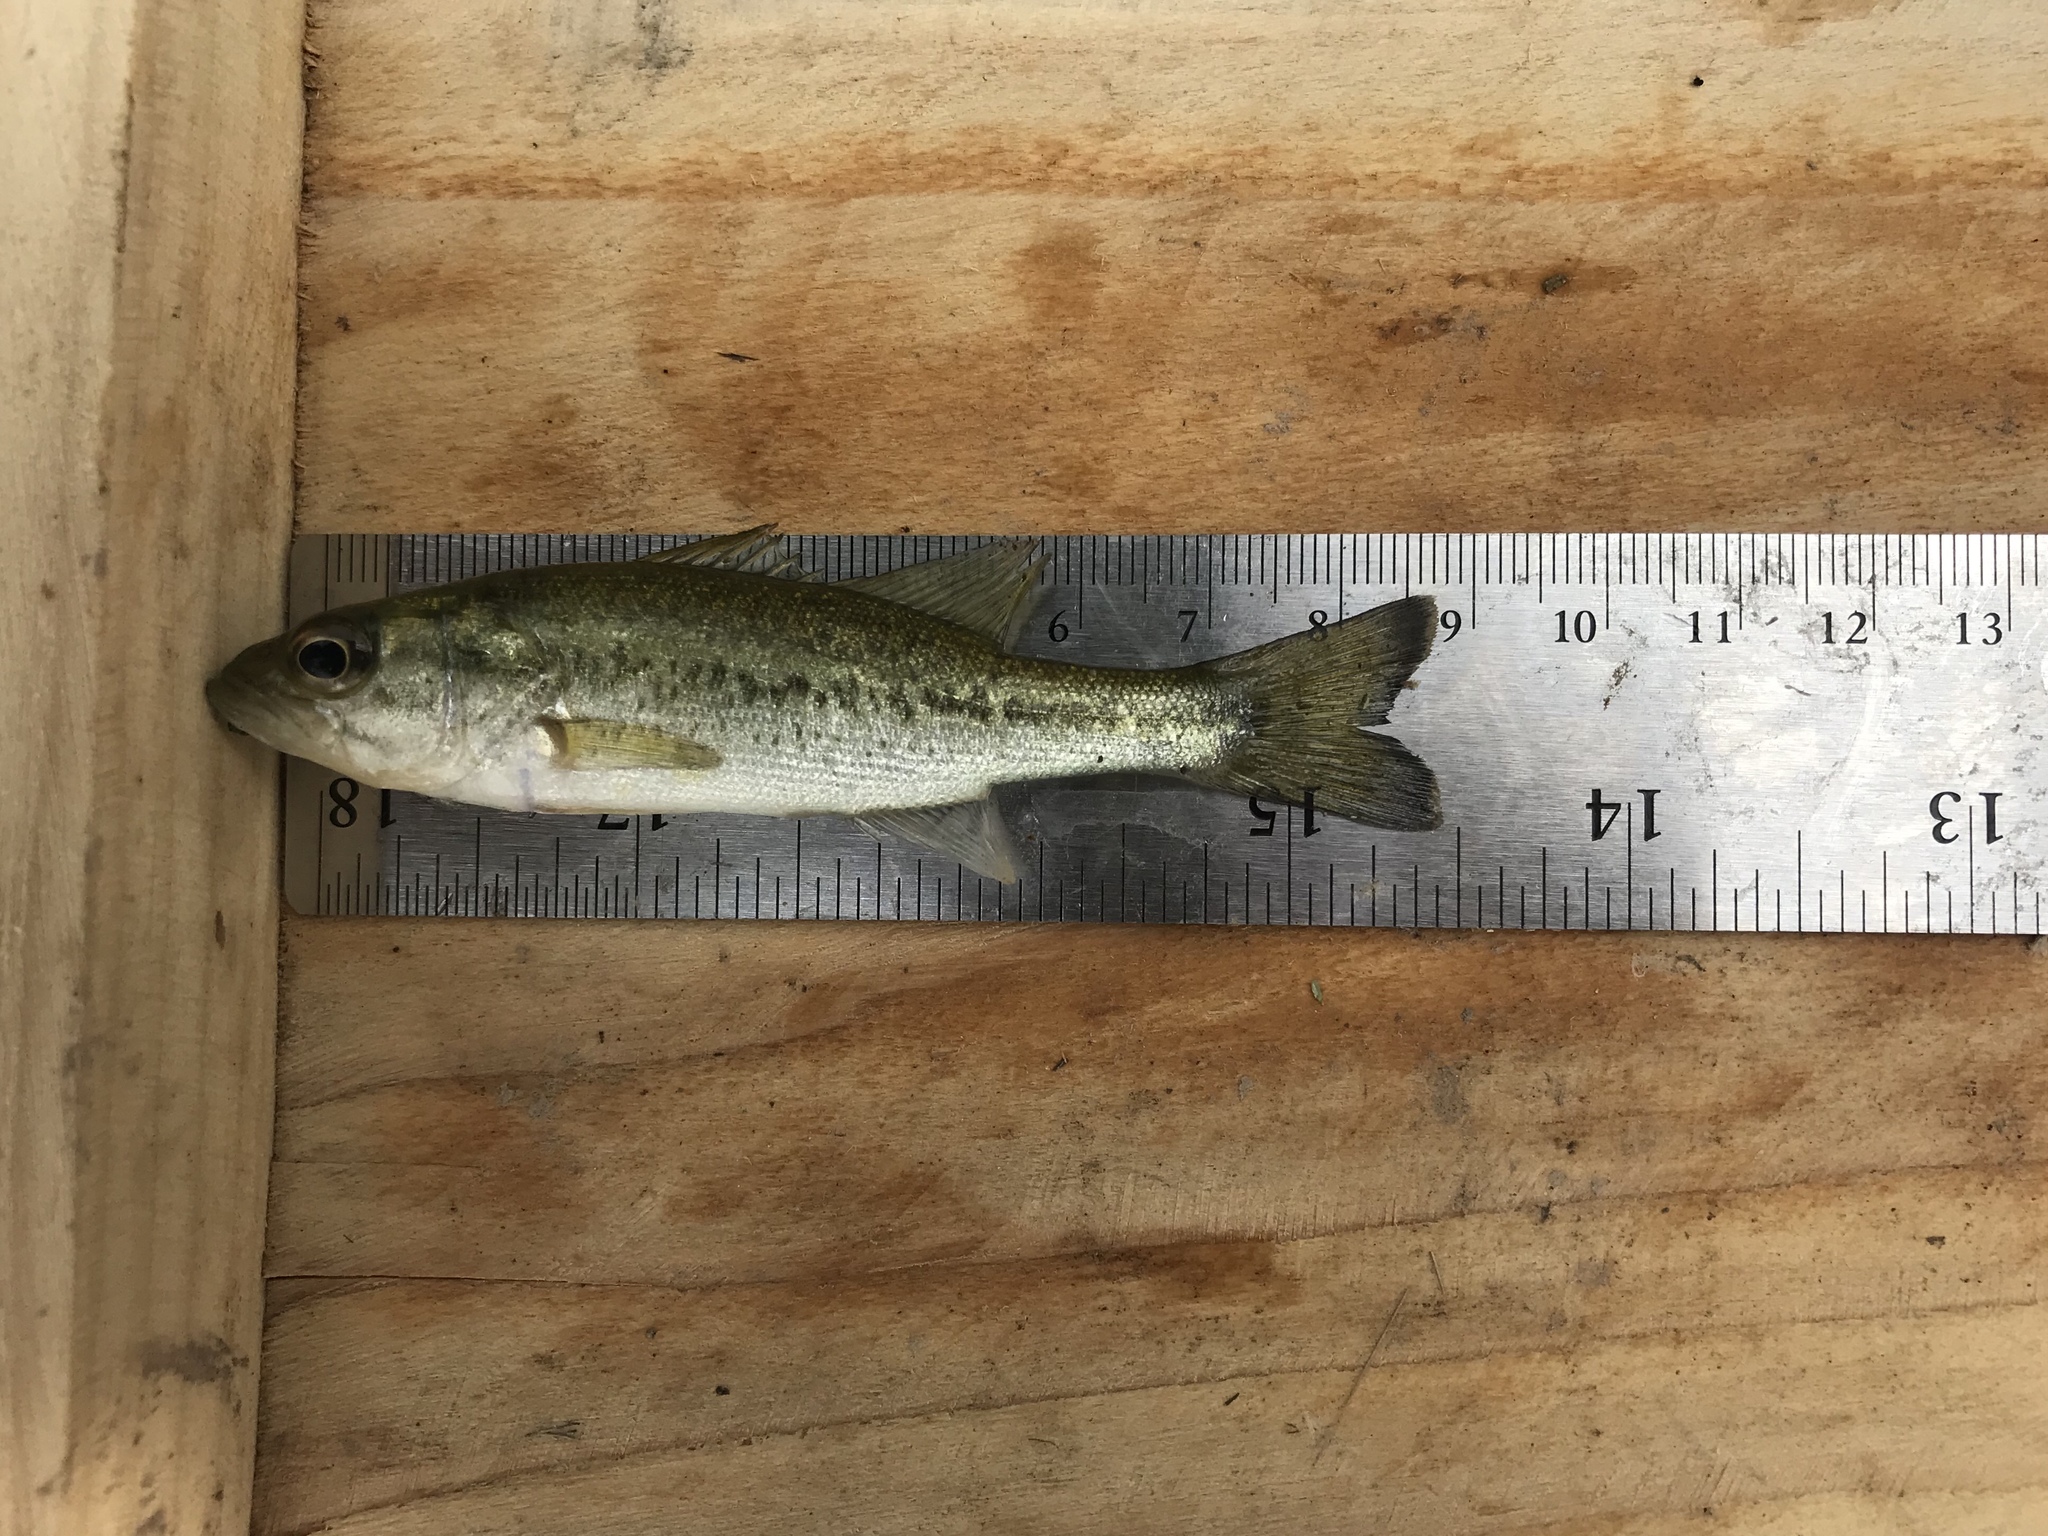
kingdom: Animalia
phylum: Chordata
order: Perciformes
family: Centrarchidae
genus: Micropterus
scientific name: Micropterus
